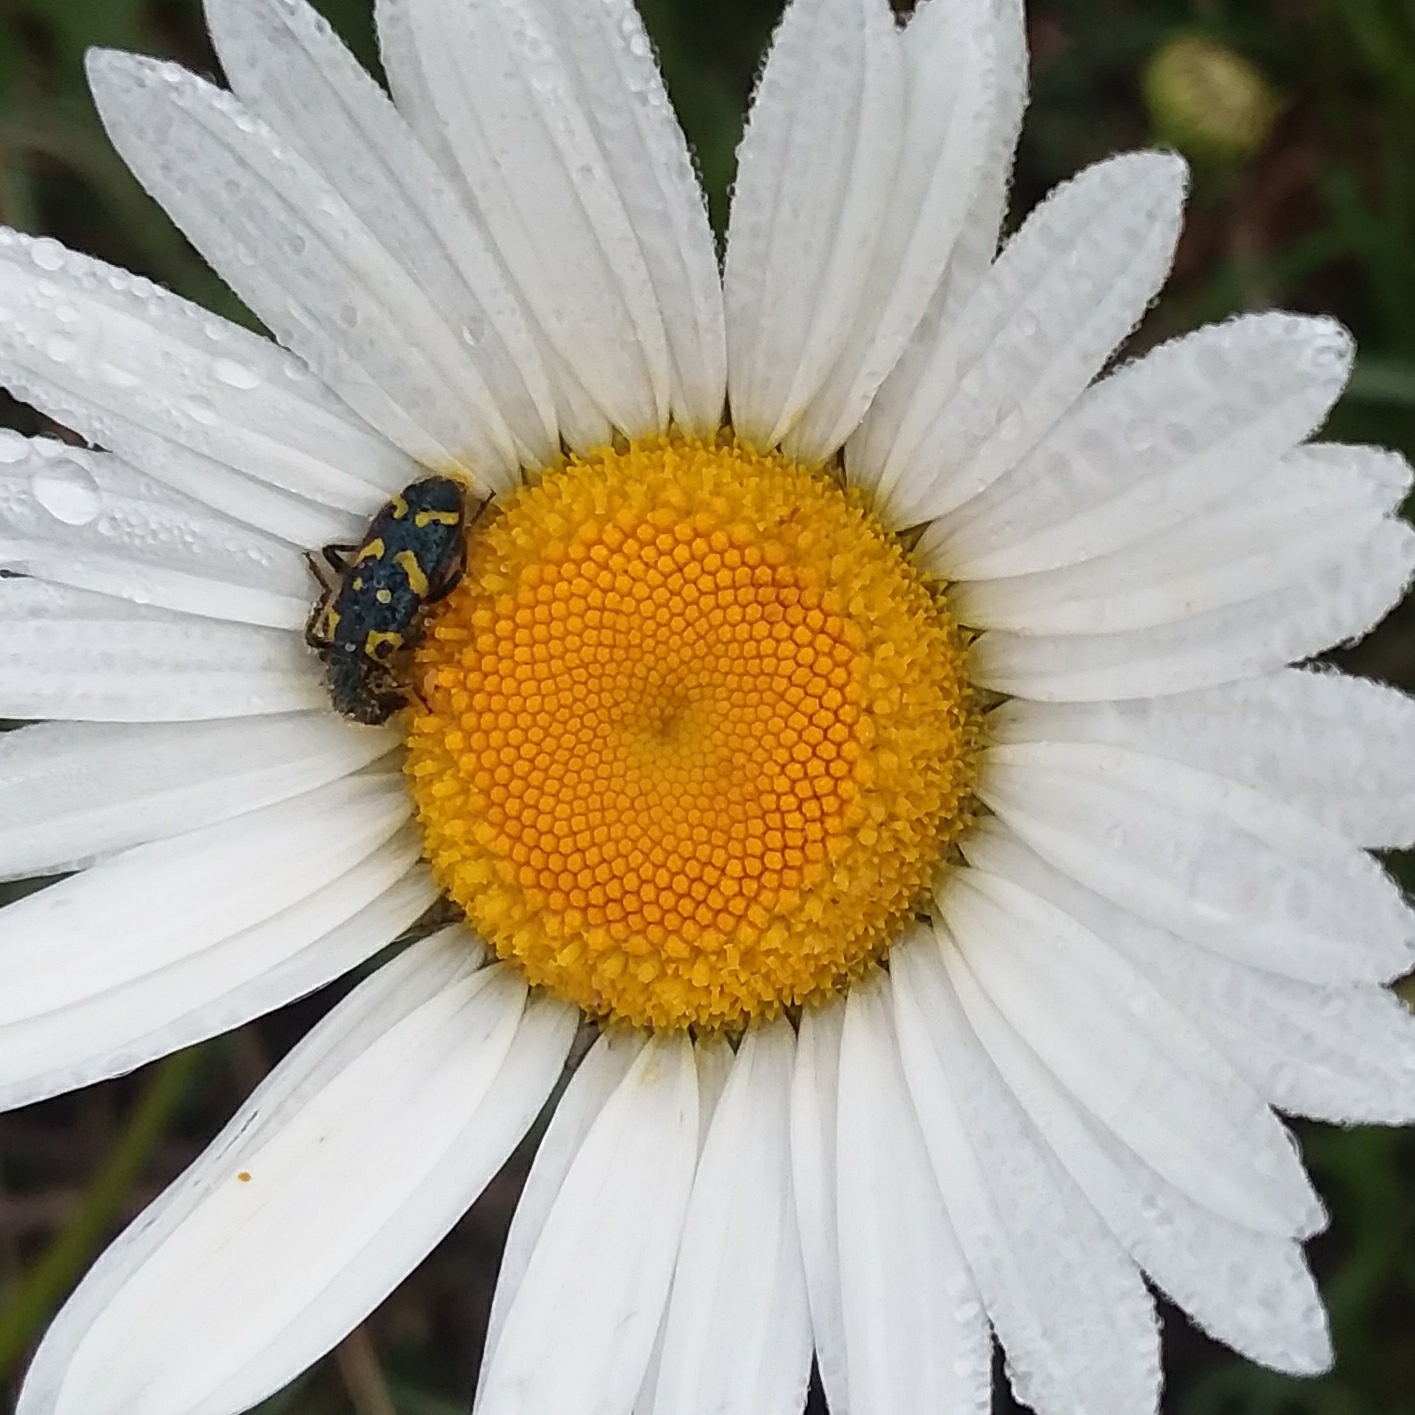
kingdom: Animalia
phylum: Arthropoda
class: Insecta
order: Coleoptera
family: Cleridae
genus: Trichodes
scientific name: Trichodes ornatus
